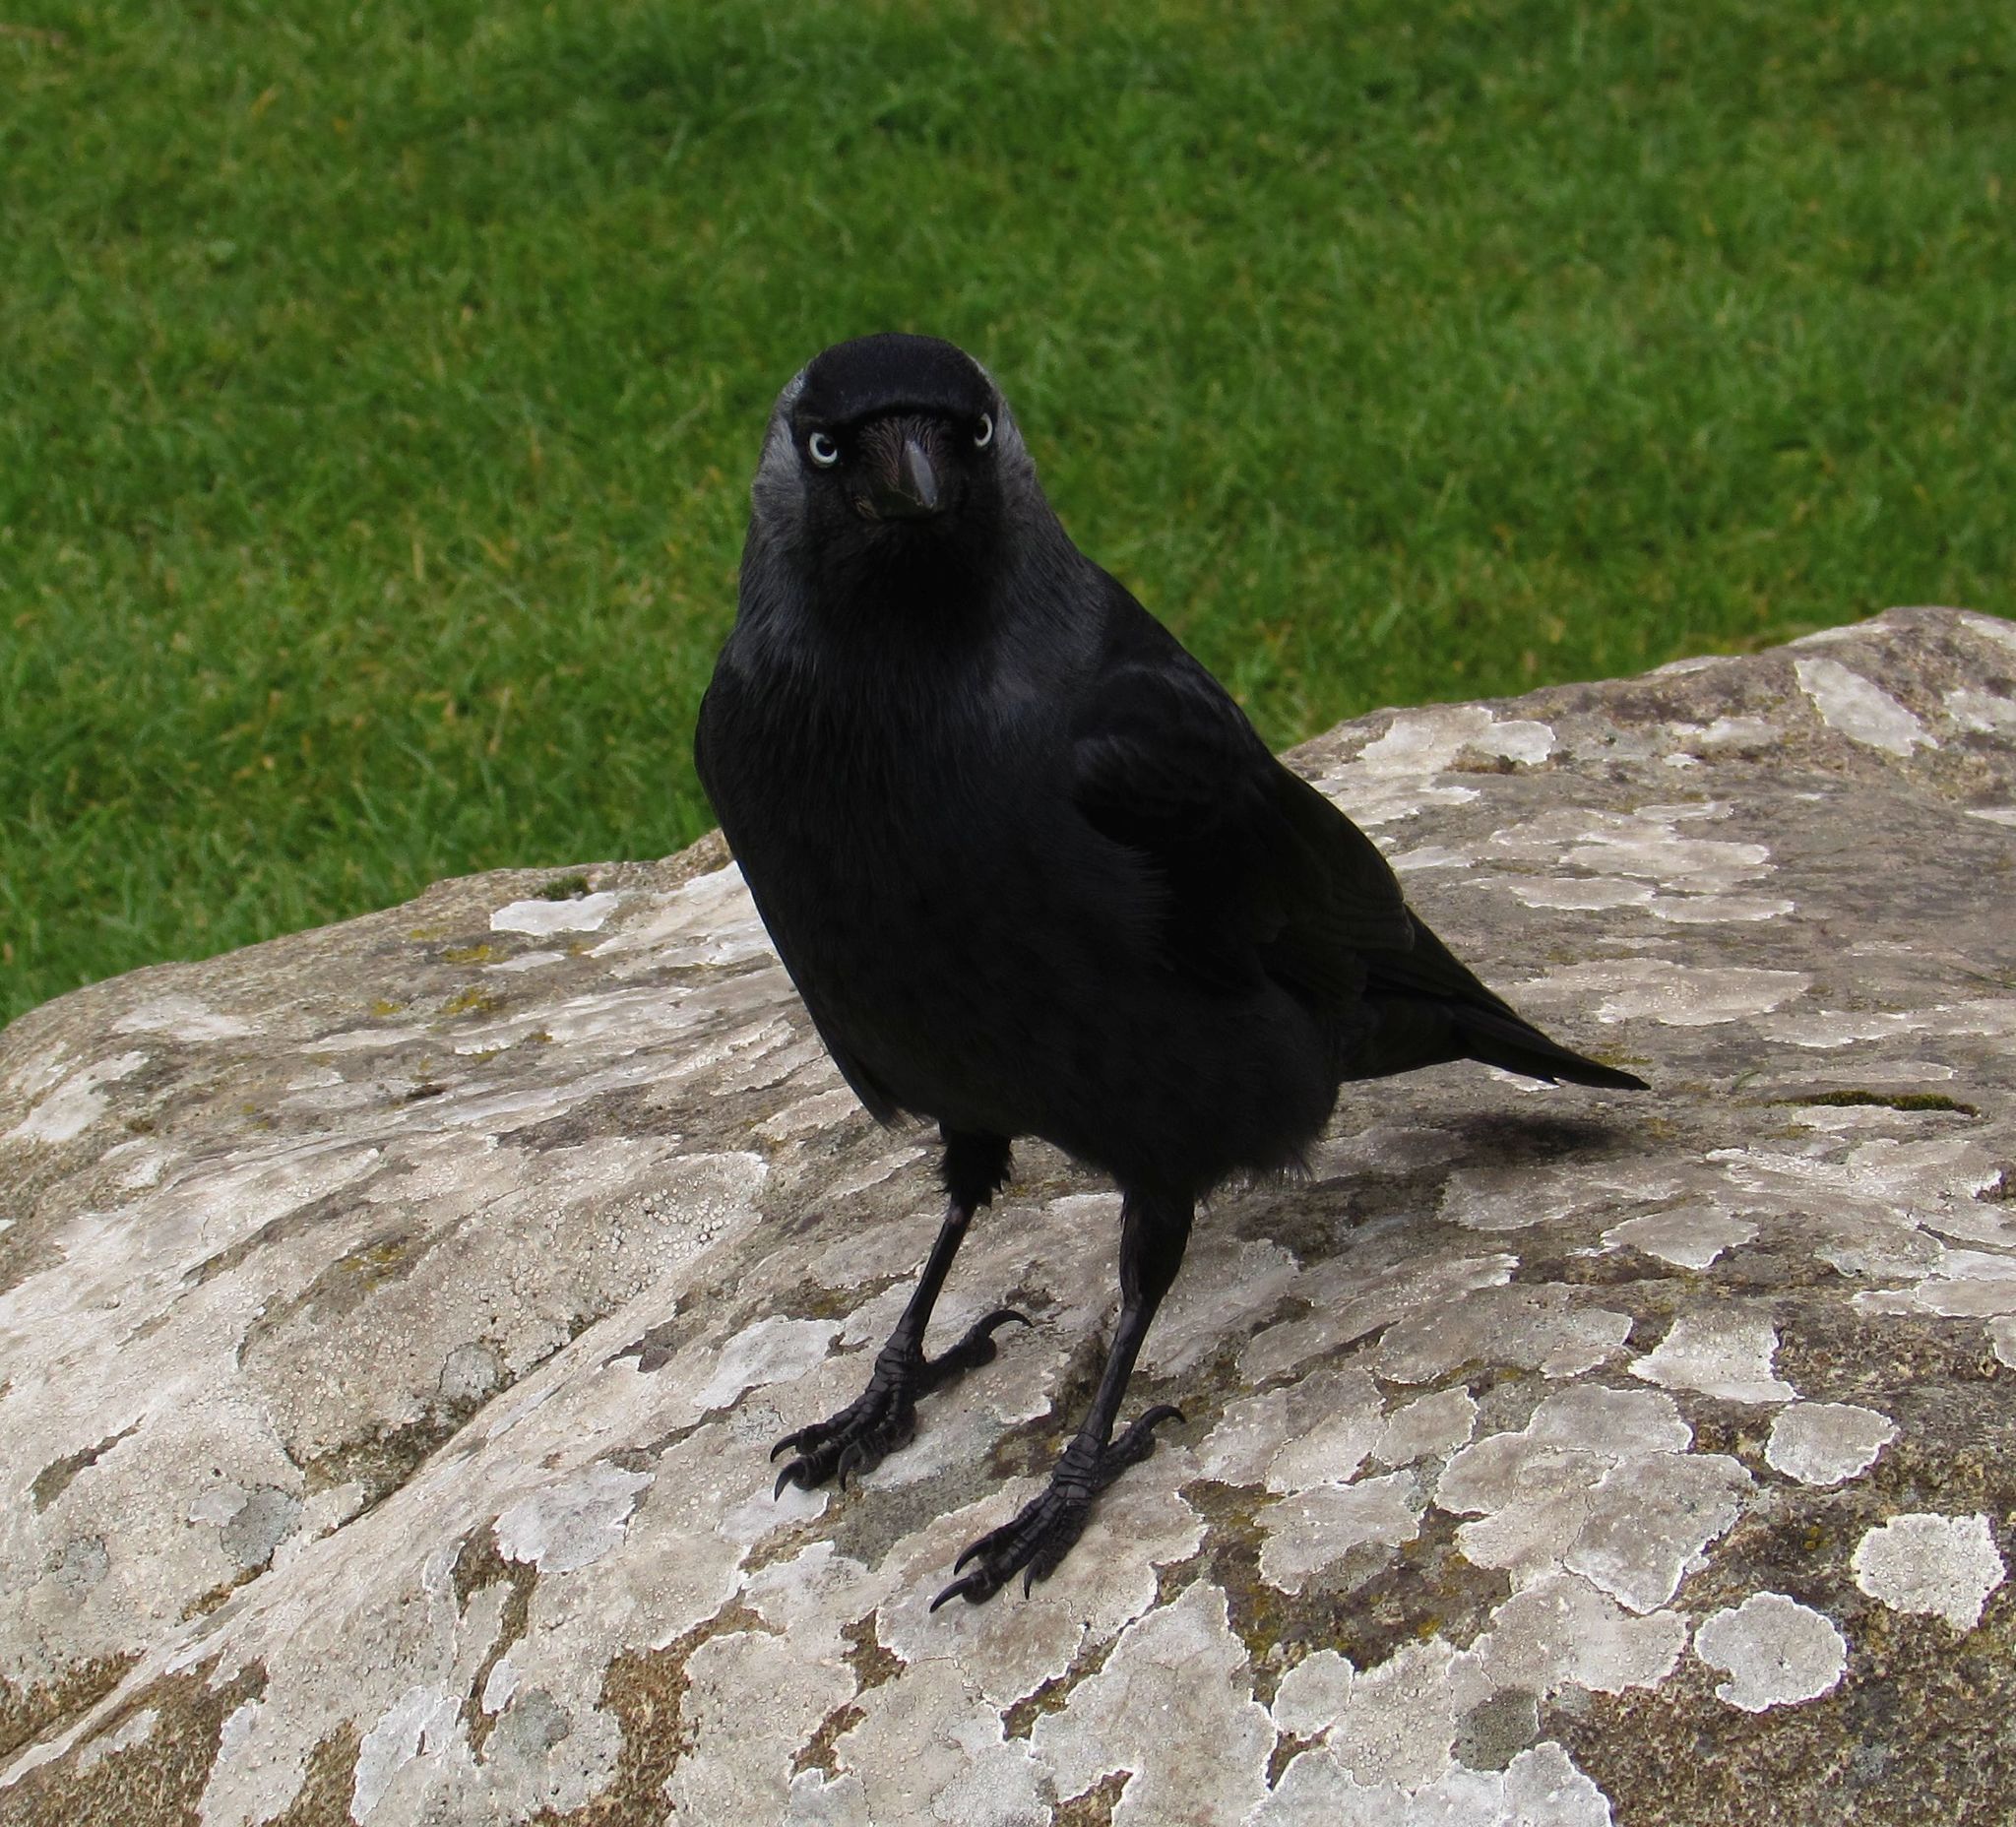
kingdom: Animalia
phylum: Chordata
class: Aves
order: Passeriformes
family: Corvidae
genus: Coloeus
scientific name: Coloeus monedula
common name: Western jackdaw
